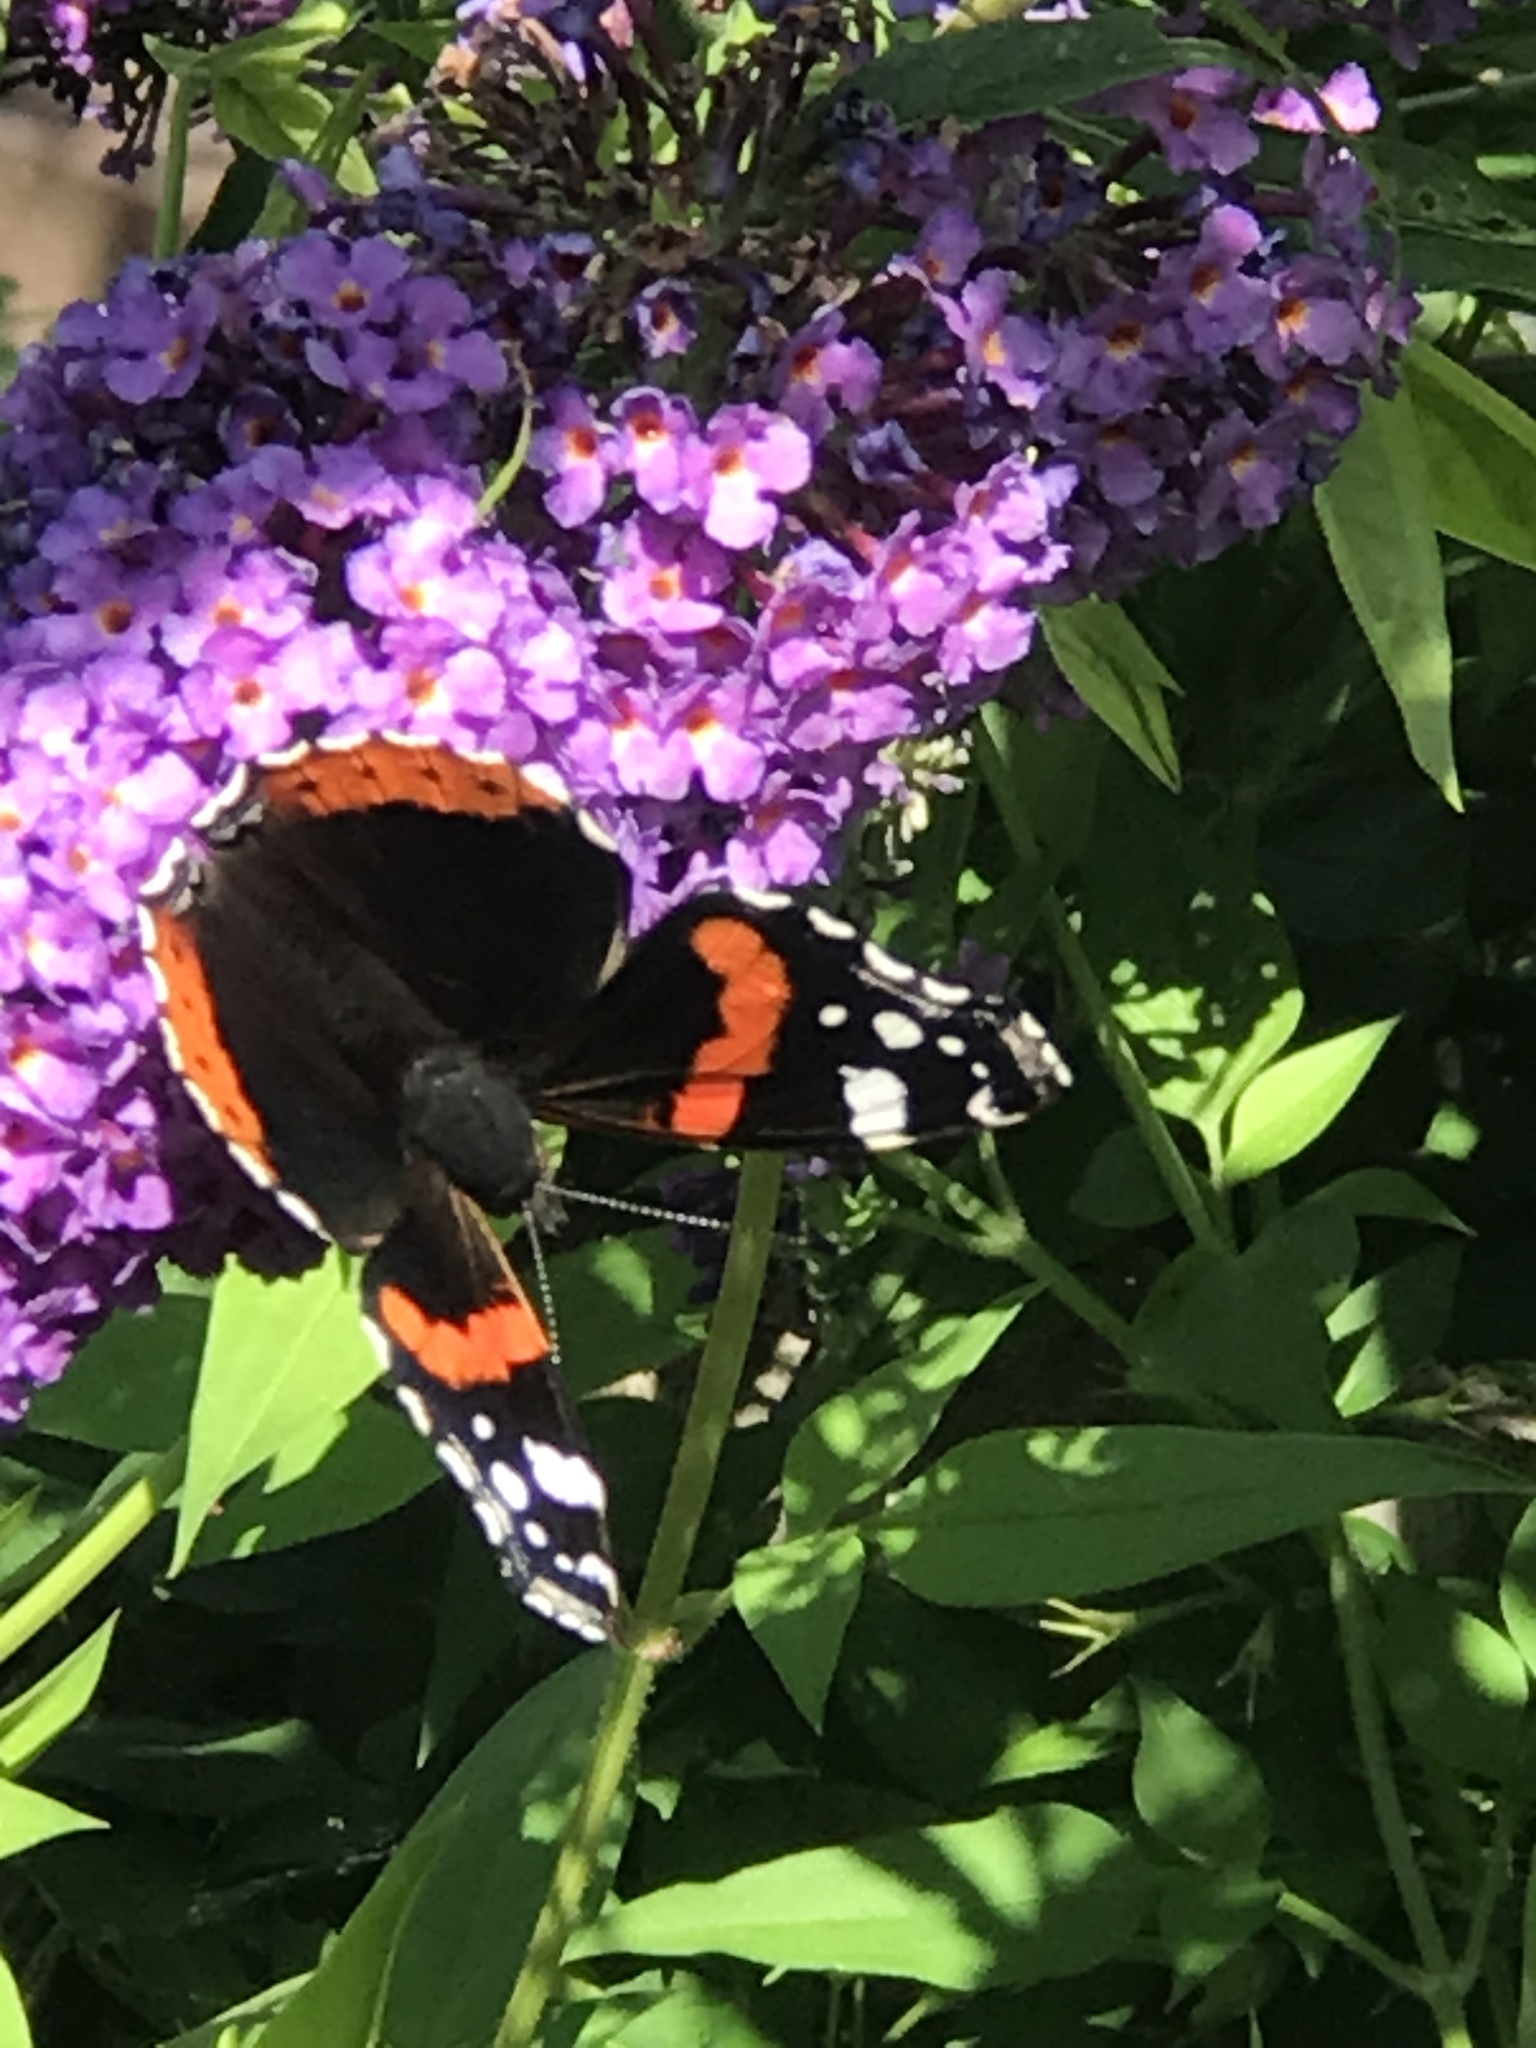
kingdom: Animalia
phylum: Arthropoda
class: Insecta
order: Lepidoptera
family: Nymphalidae
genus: Vanessa
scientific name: Vanessa atalanta
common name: Red admiral
